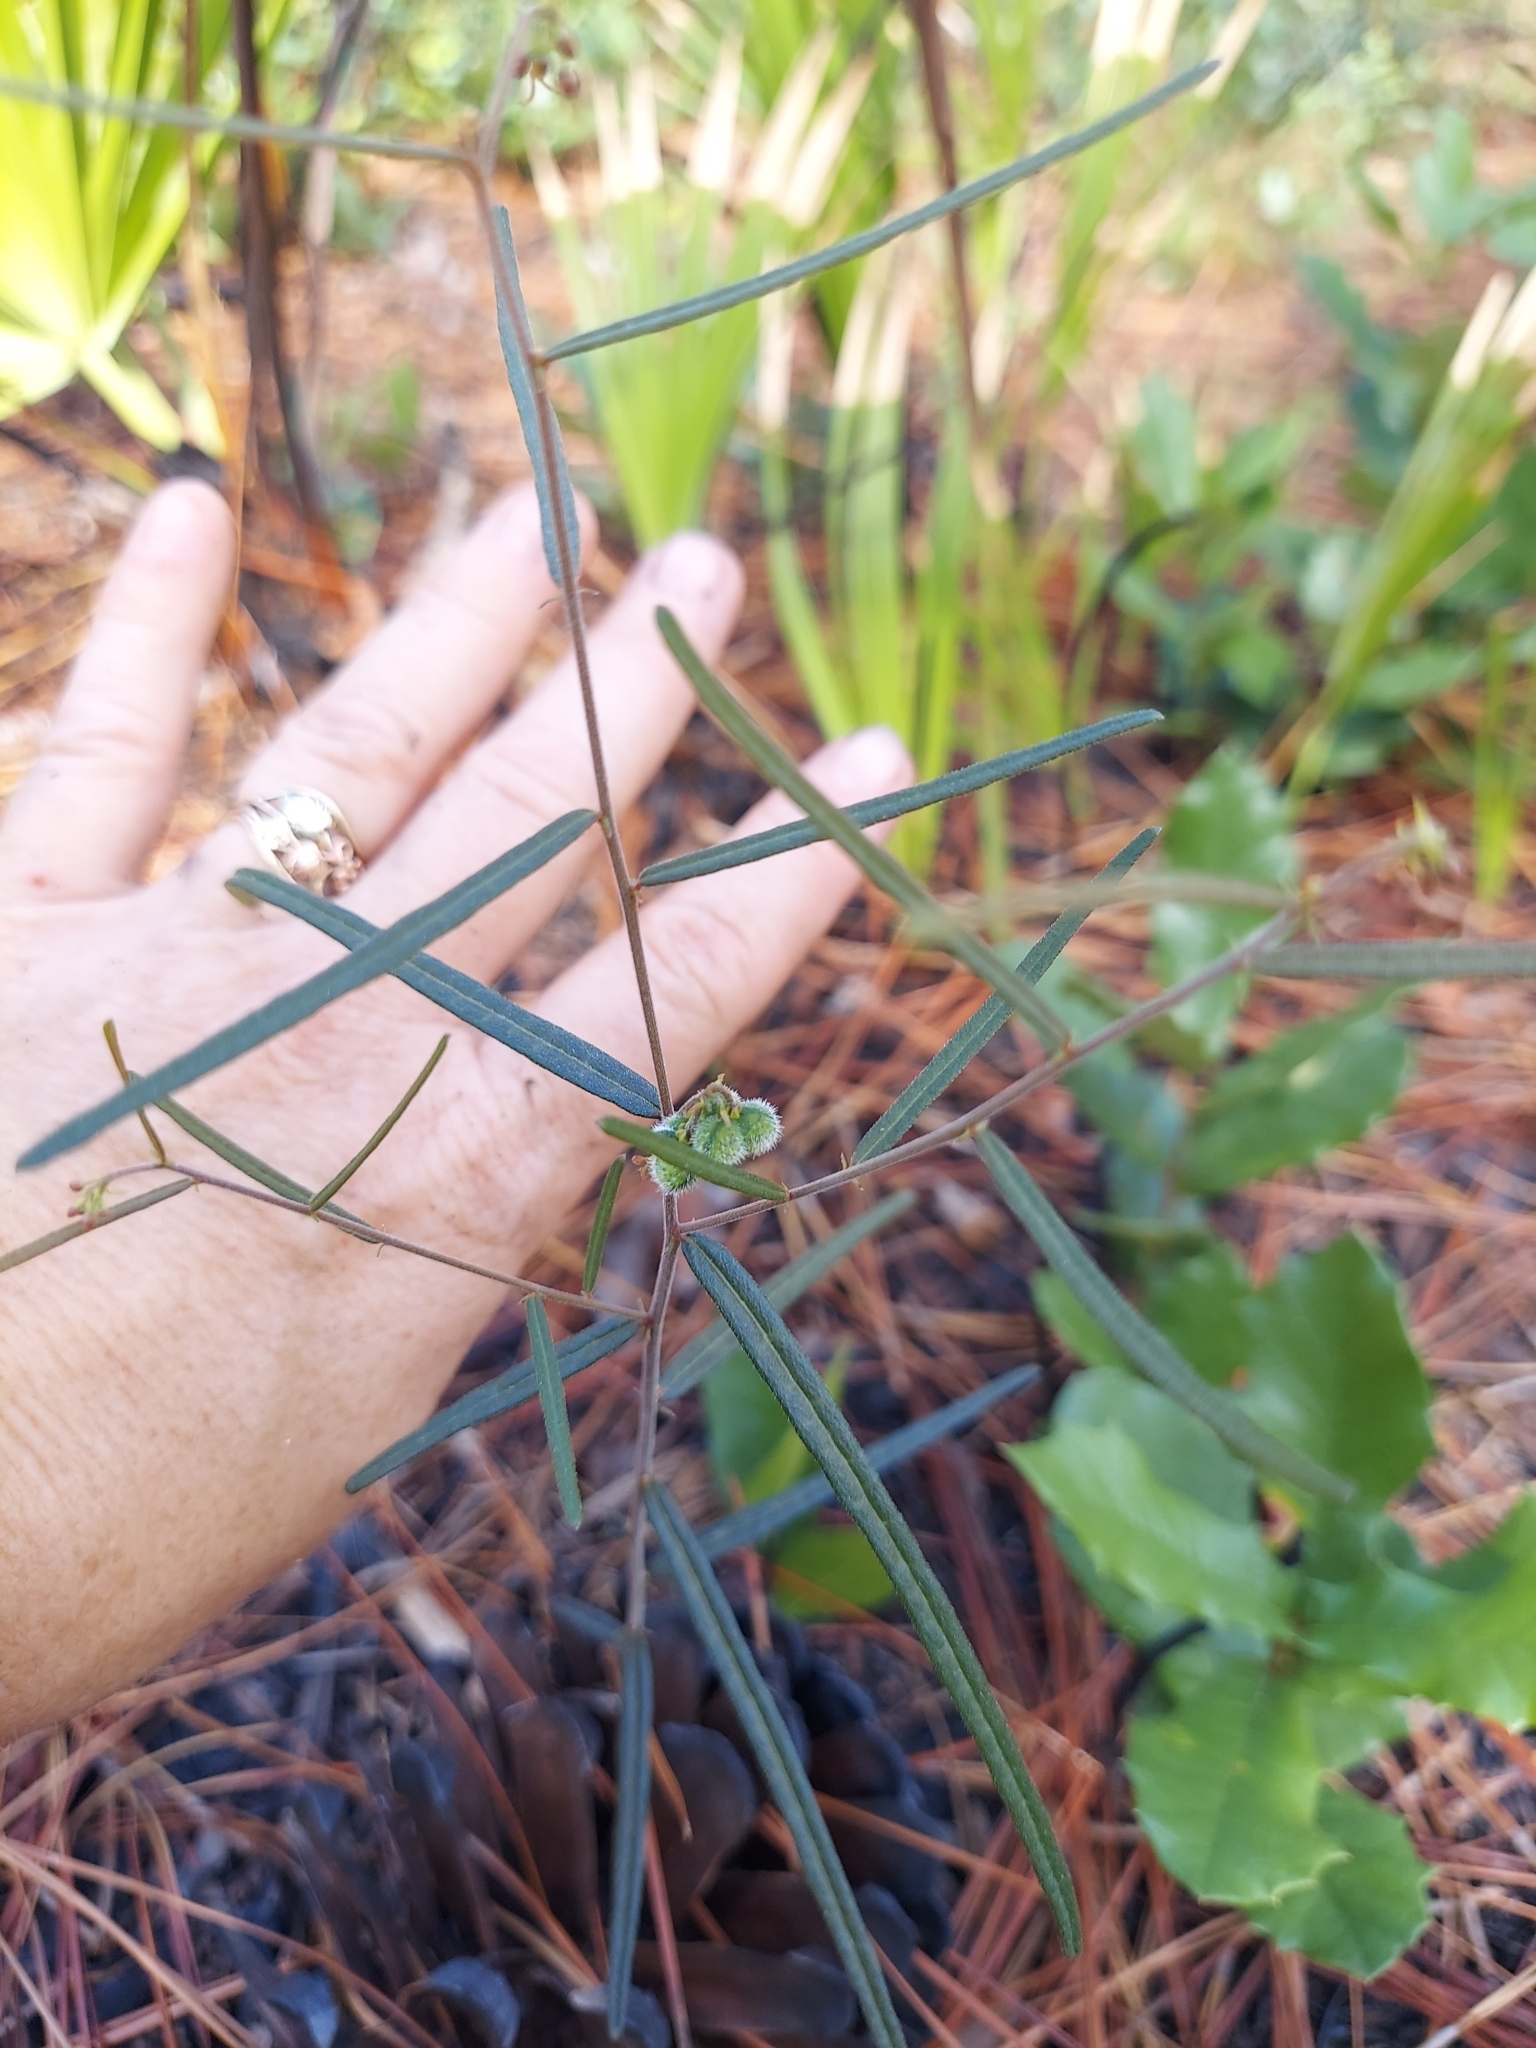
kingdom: Plantae
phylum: Tracheophyta
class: Magnoliopsida
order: Malpighiales
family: Euphorbiaceae
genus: Tragia
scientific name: Tragia urens
